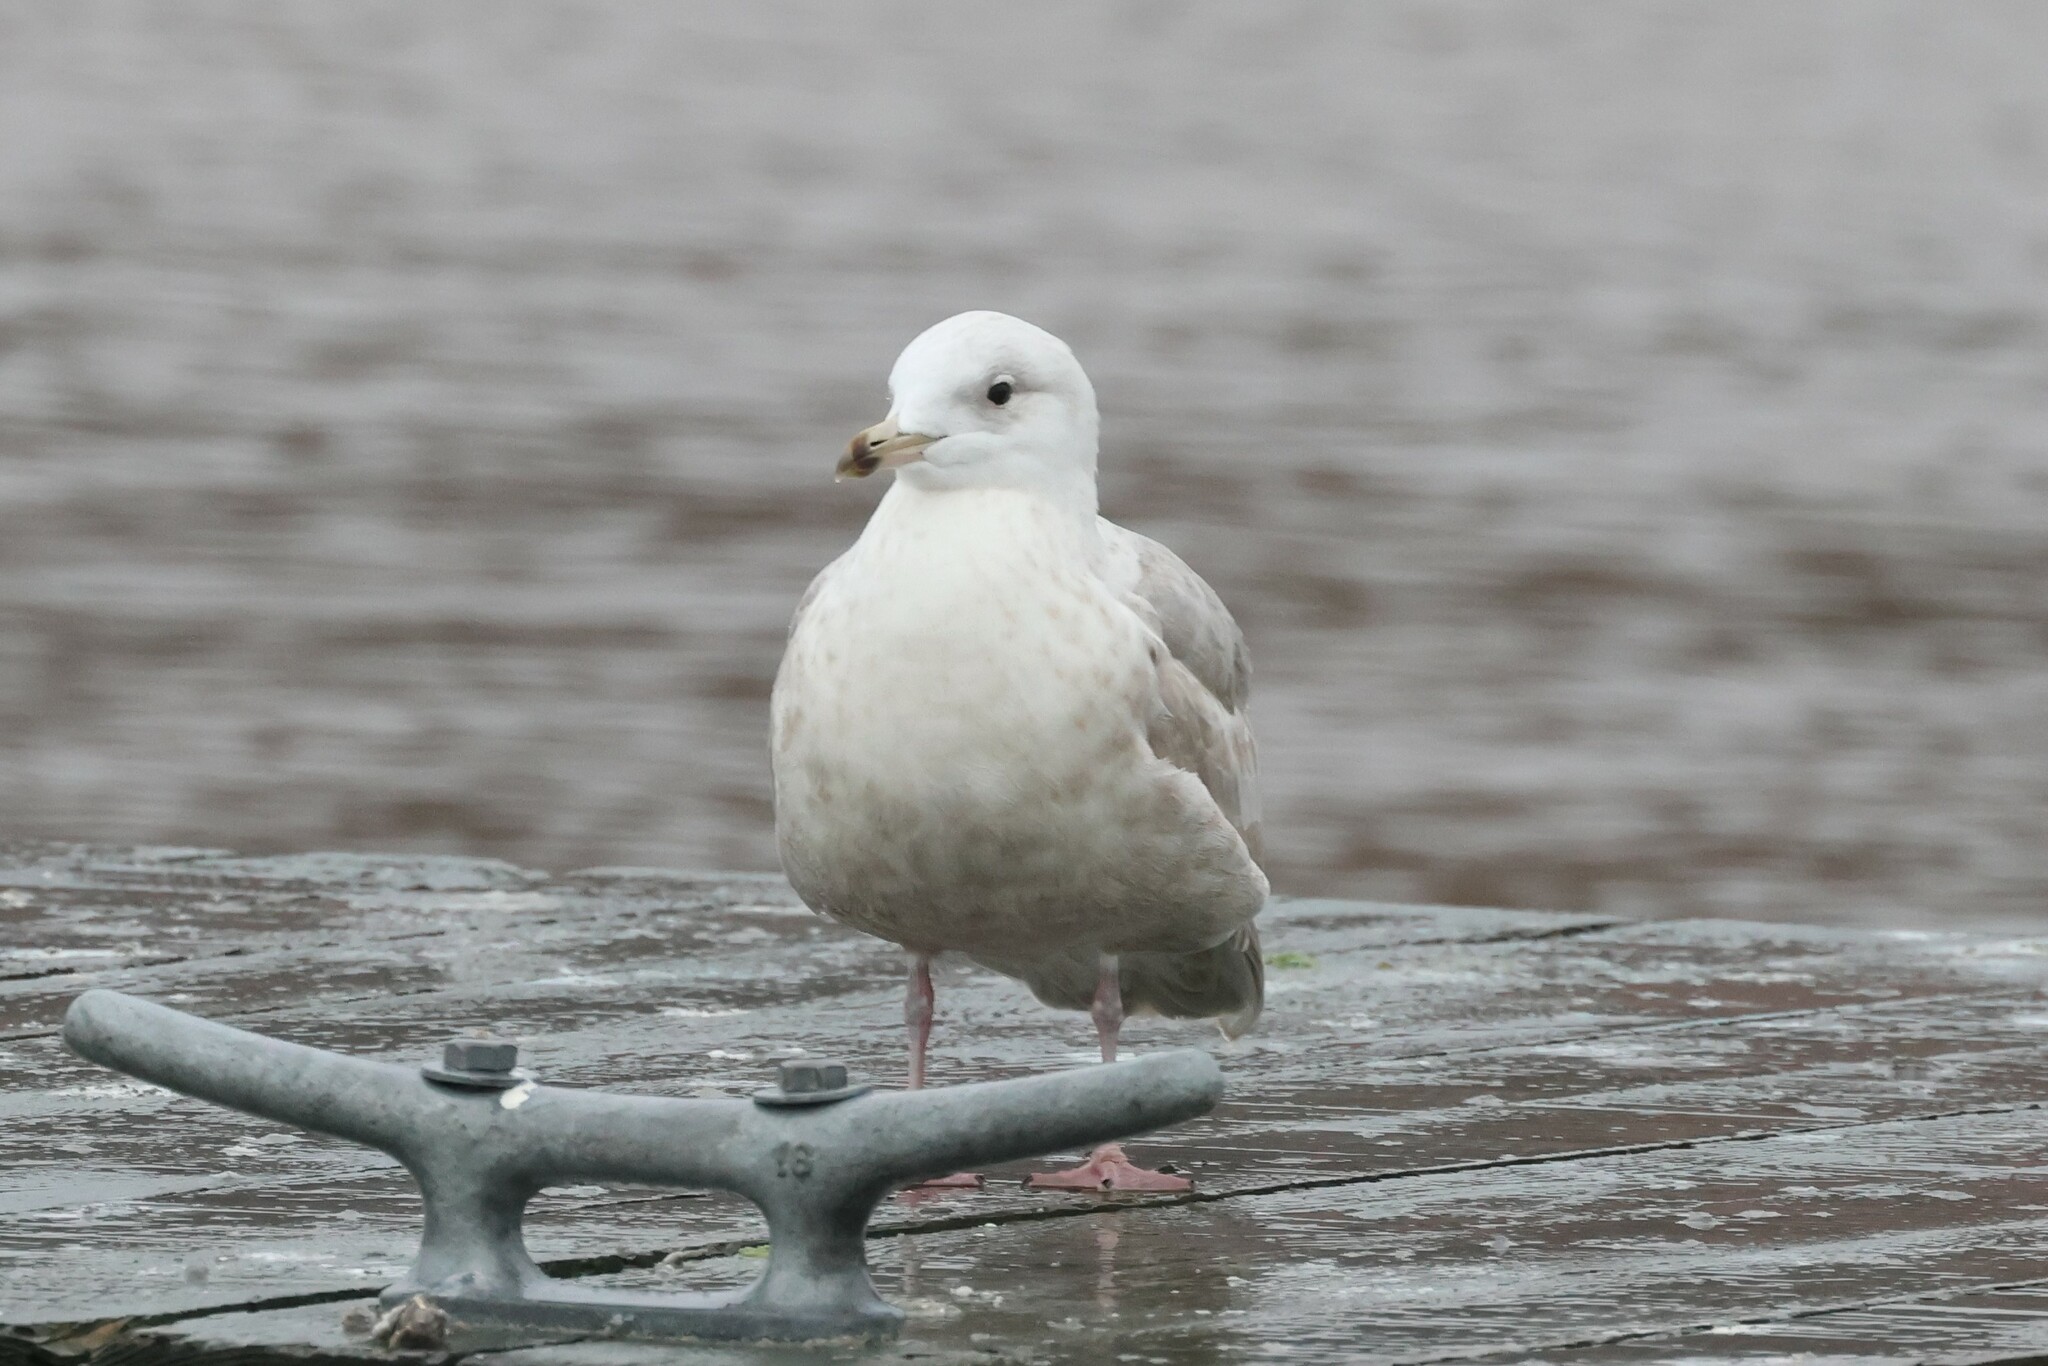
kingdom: Animalia
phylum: Chordata
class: Aves
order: Charadriiformes
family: Laridae
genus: Larus
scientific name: Larus glaucoides
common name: Iceland gull
